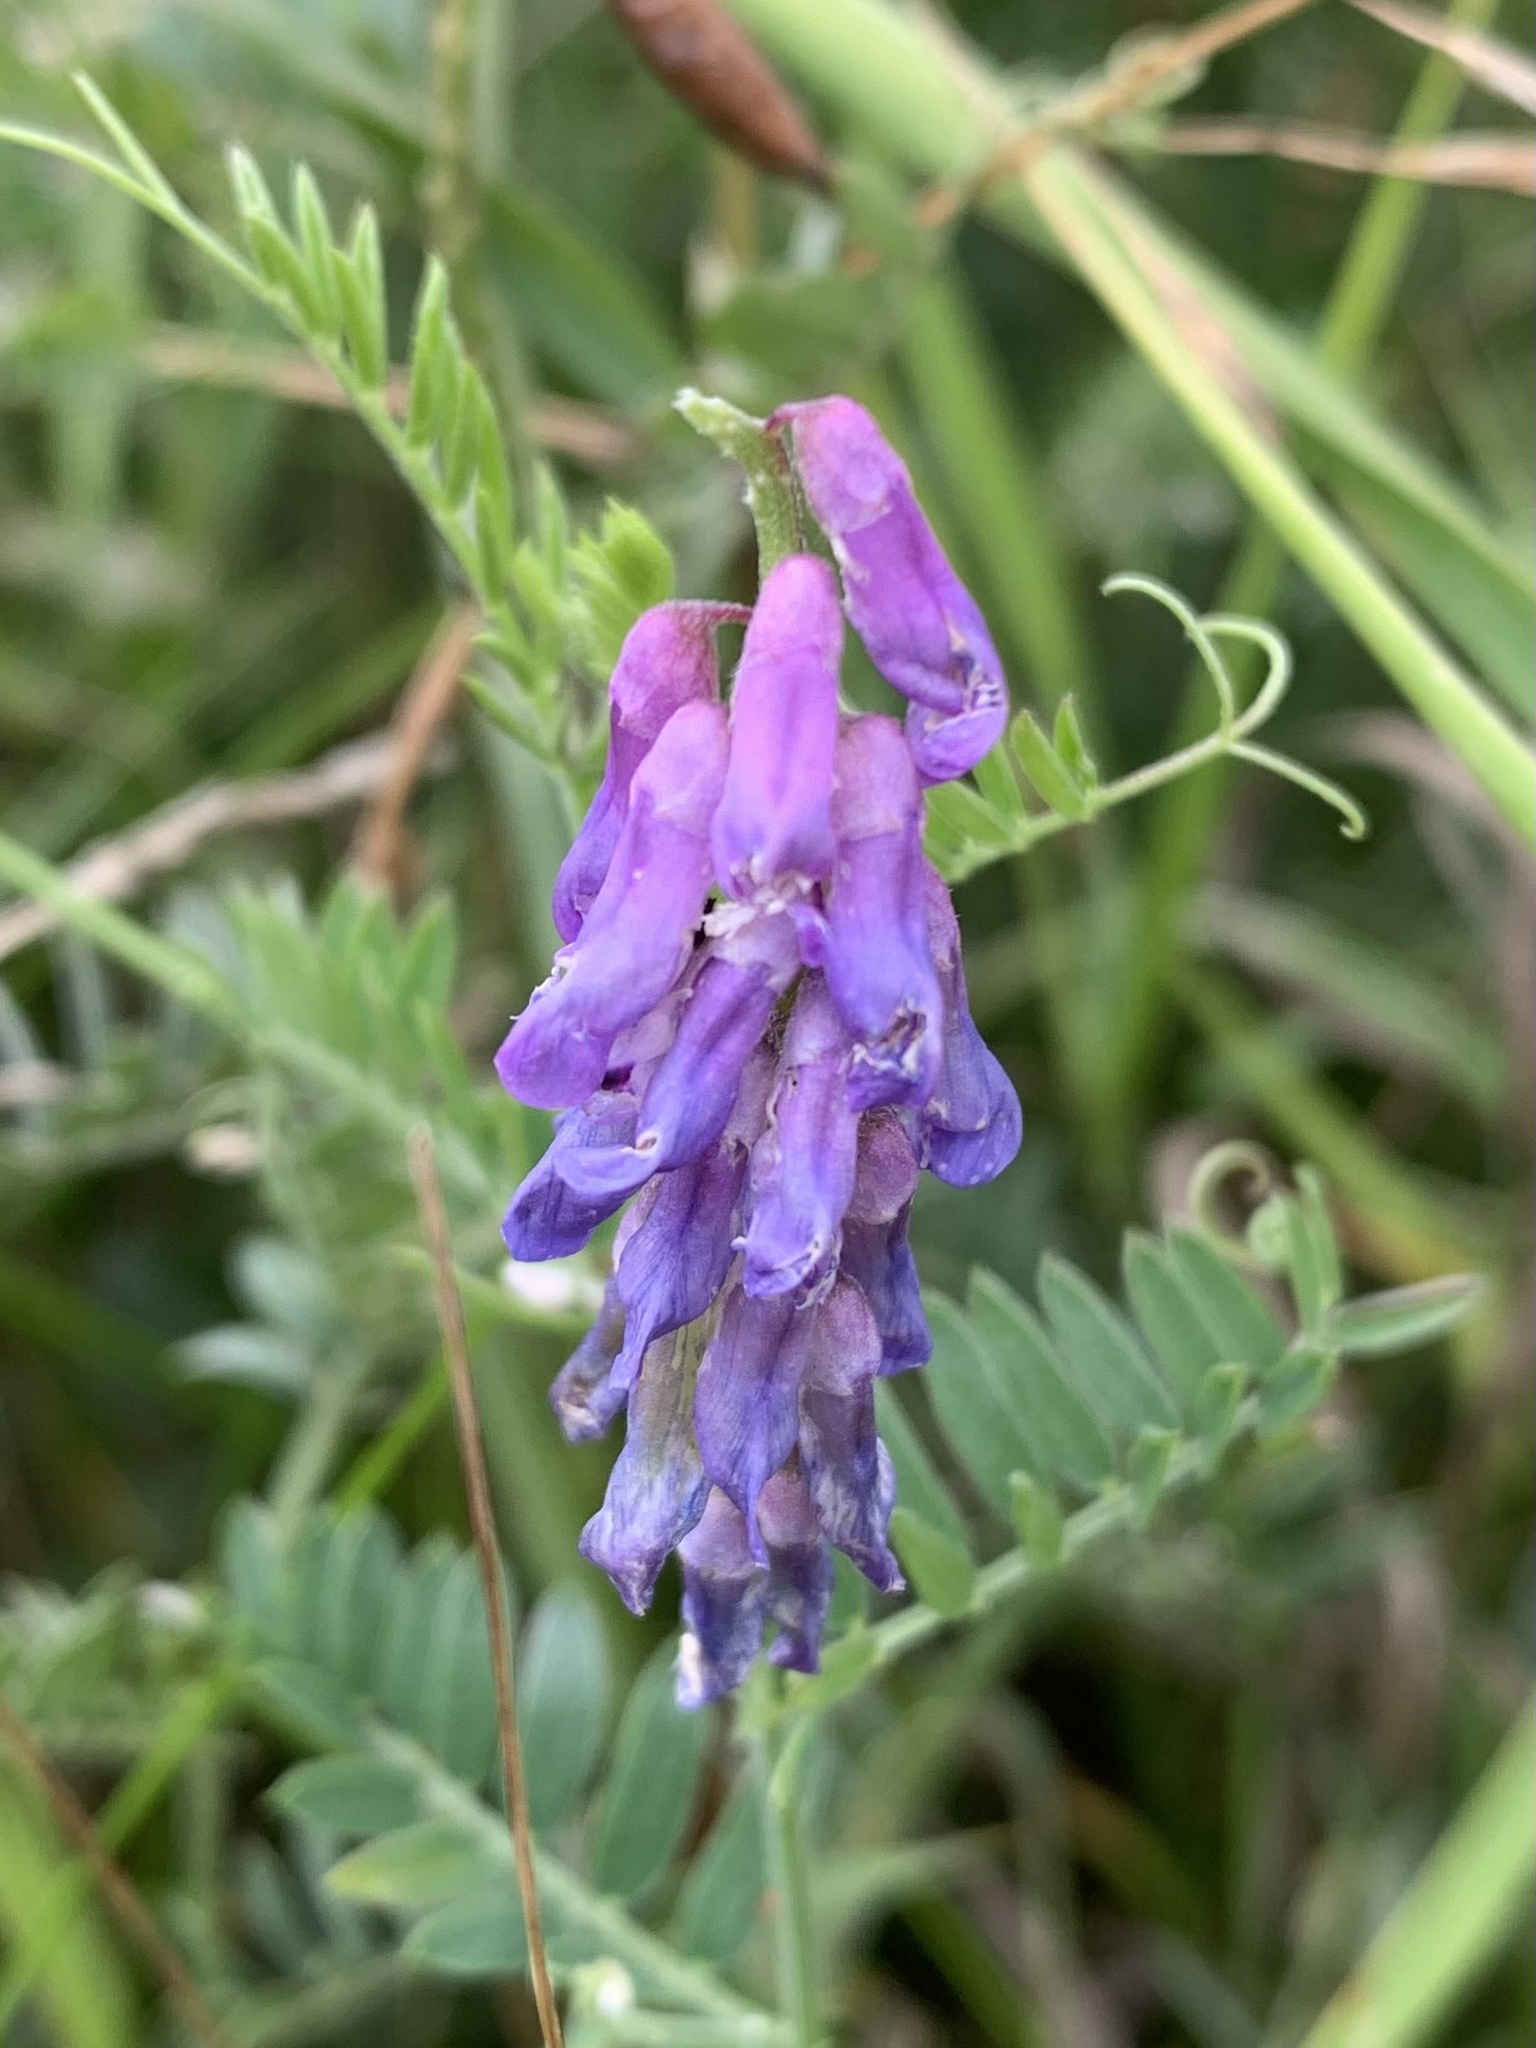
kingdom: Plantae
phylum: Tracheophyta
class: Magnoliopsida
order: Fabales
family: Fabaceae
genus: Vicia
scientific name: Vicia cracca
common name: Bird vetch
